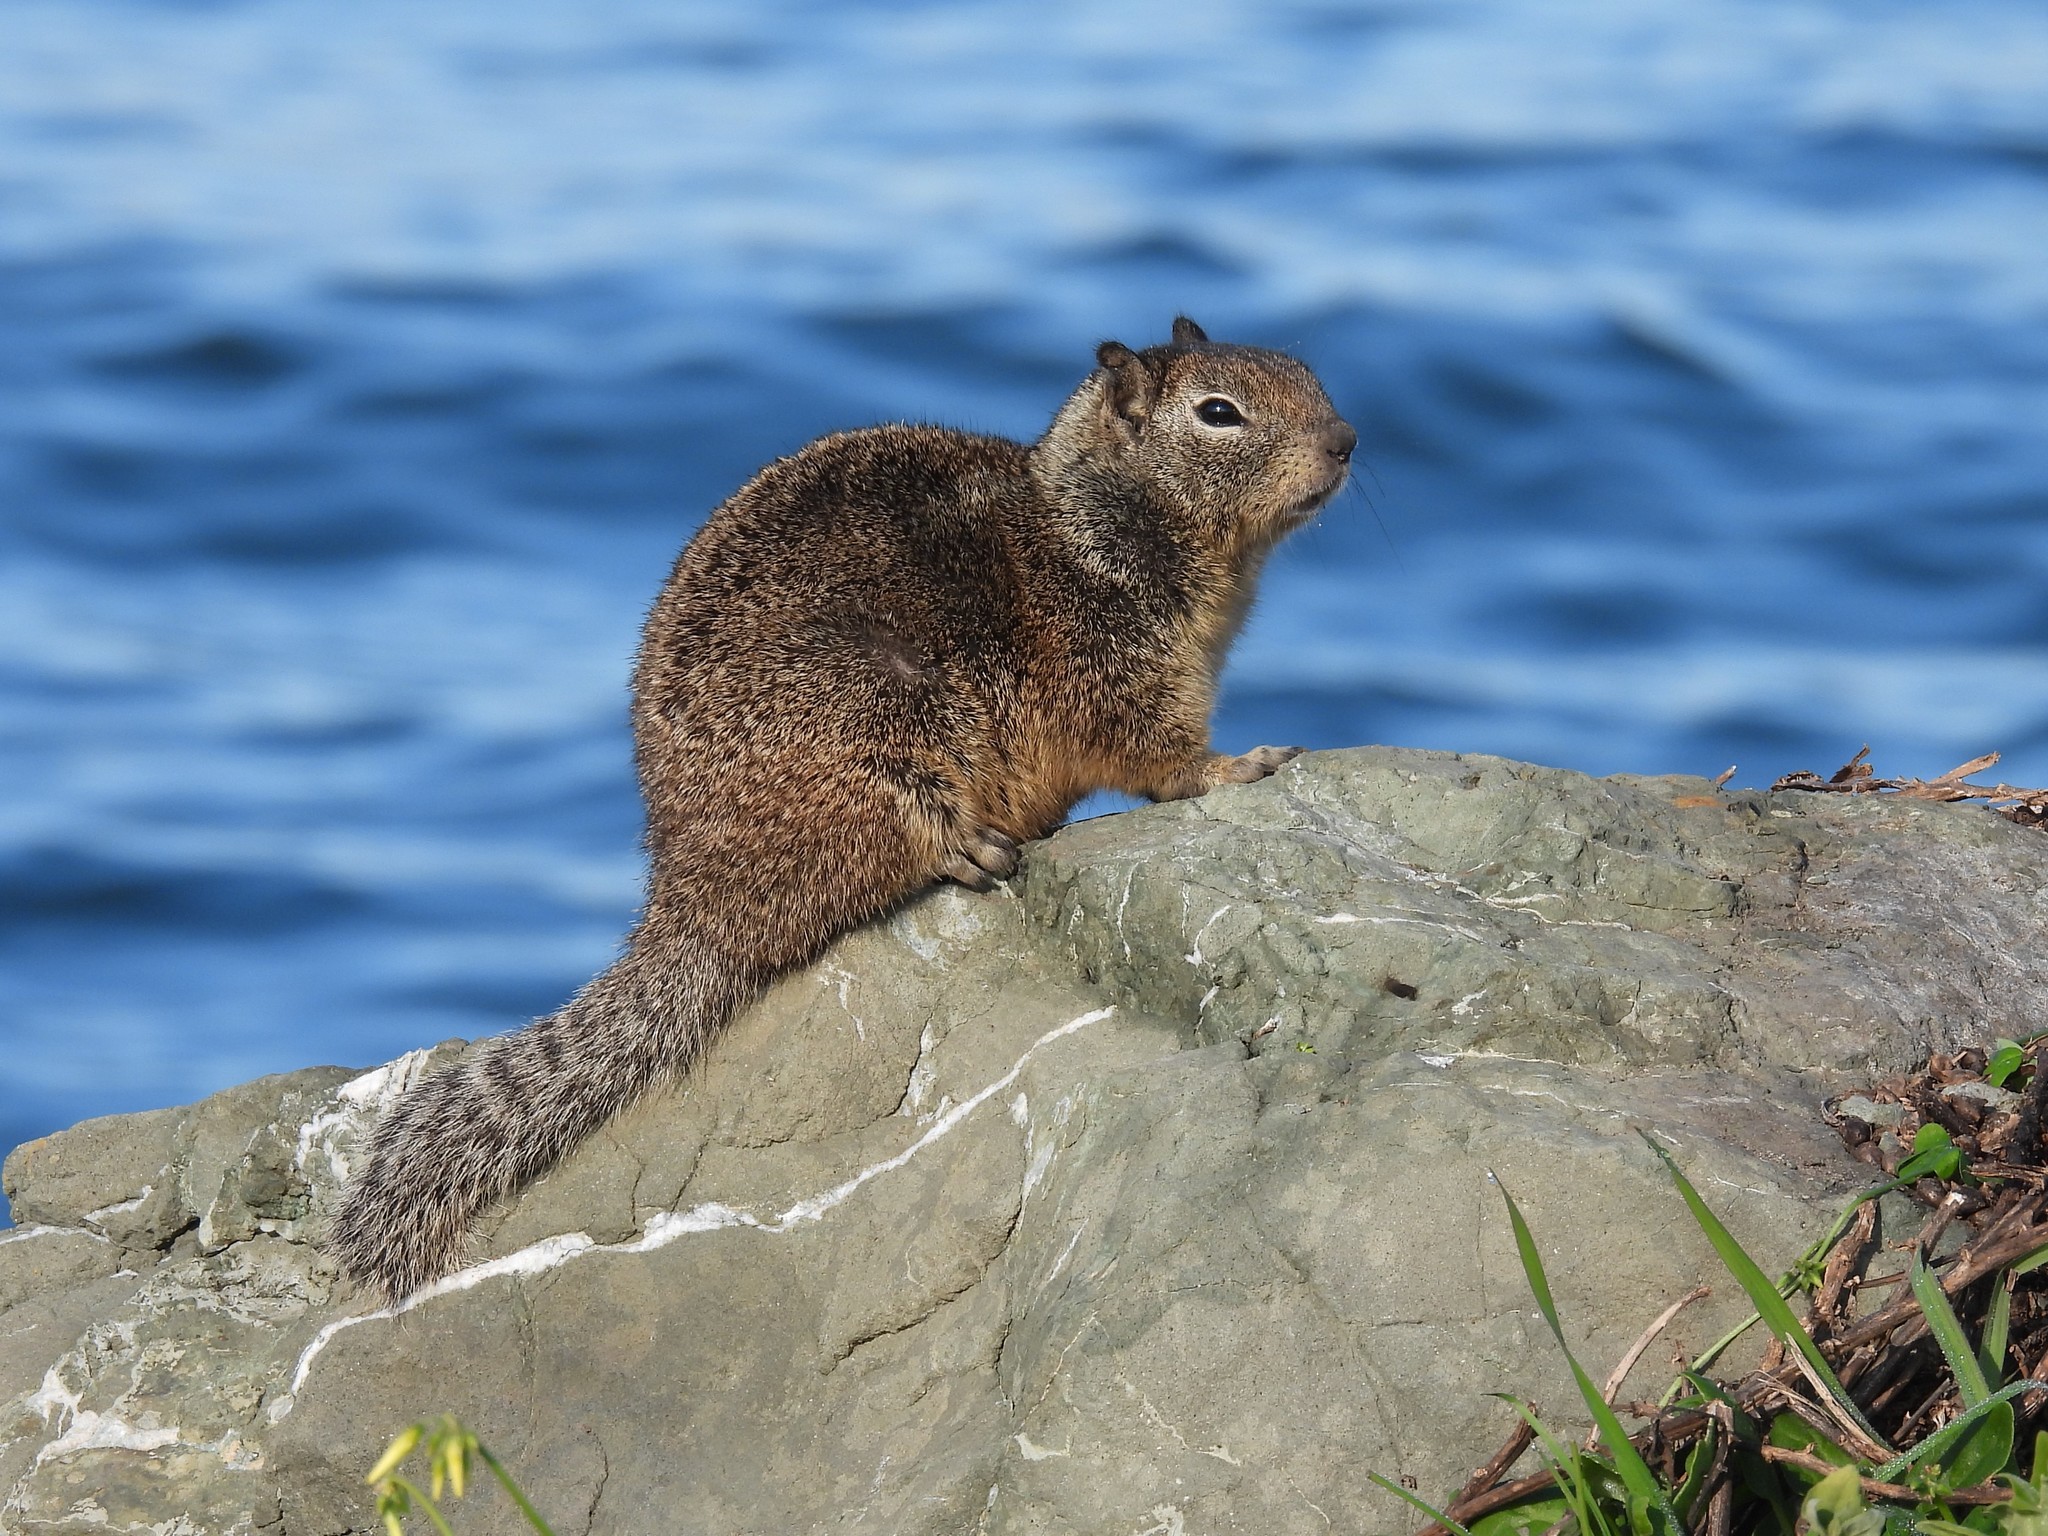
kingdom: Animalia
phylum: Chordata
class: Mammalia
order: Rodentia
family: Sciuridae
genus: Otospermophilus
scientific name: Otospermophilus beecheyi
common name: California ground squirrel
